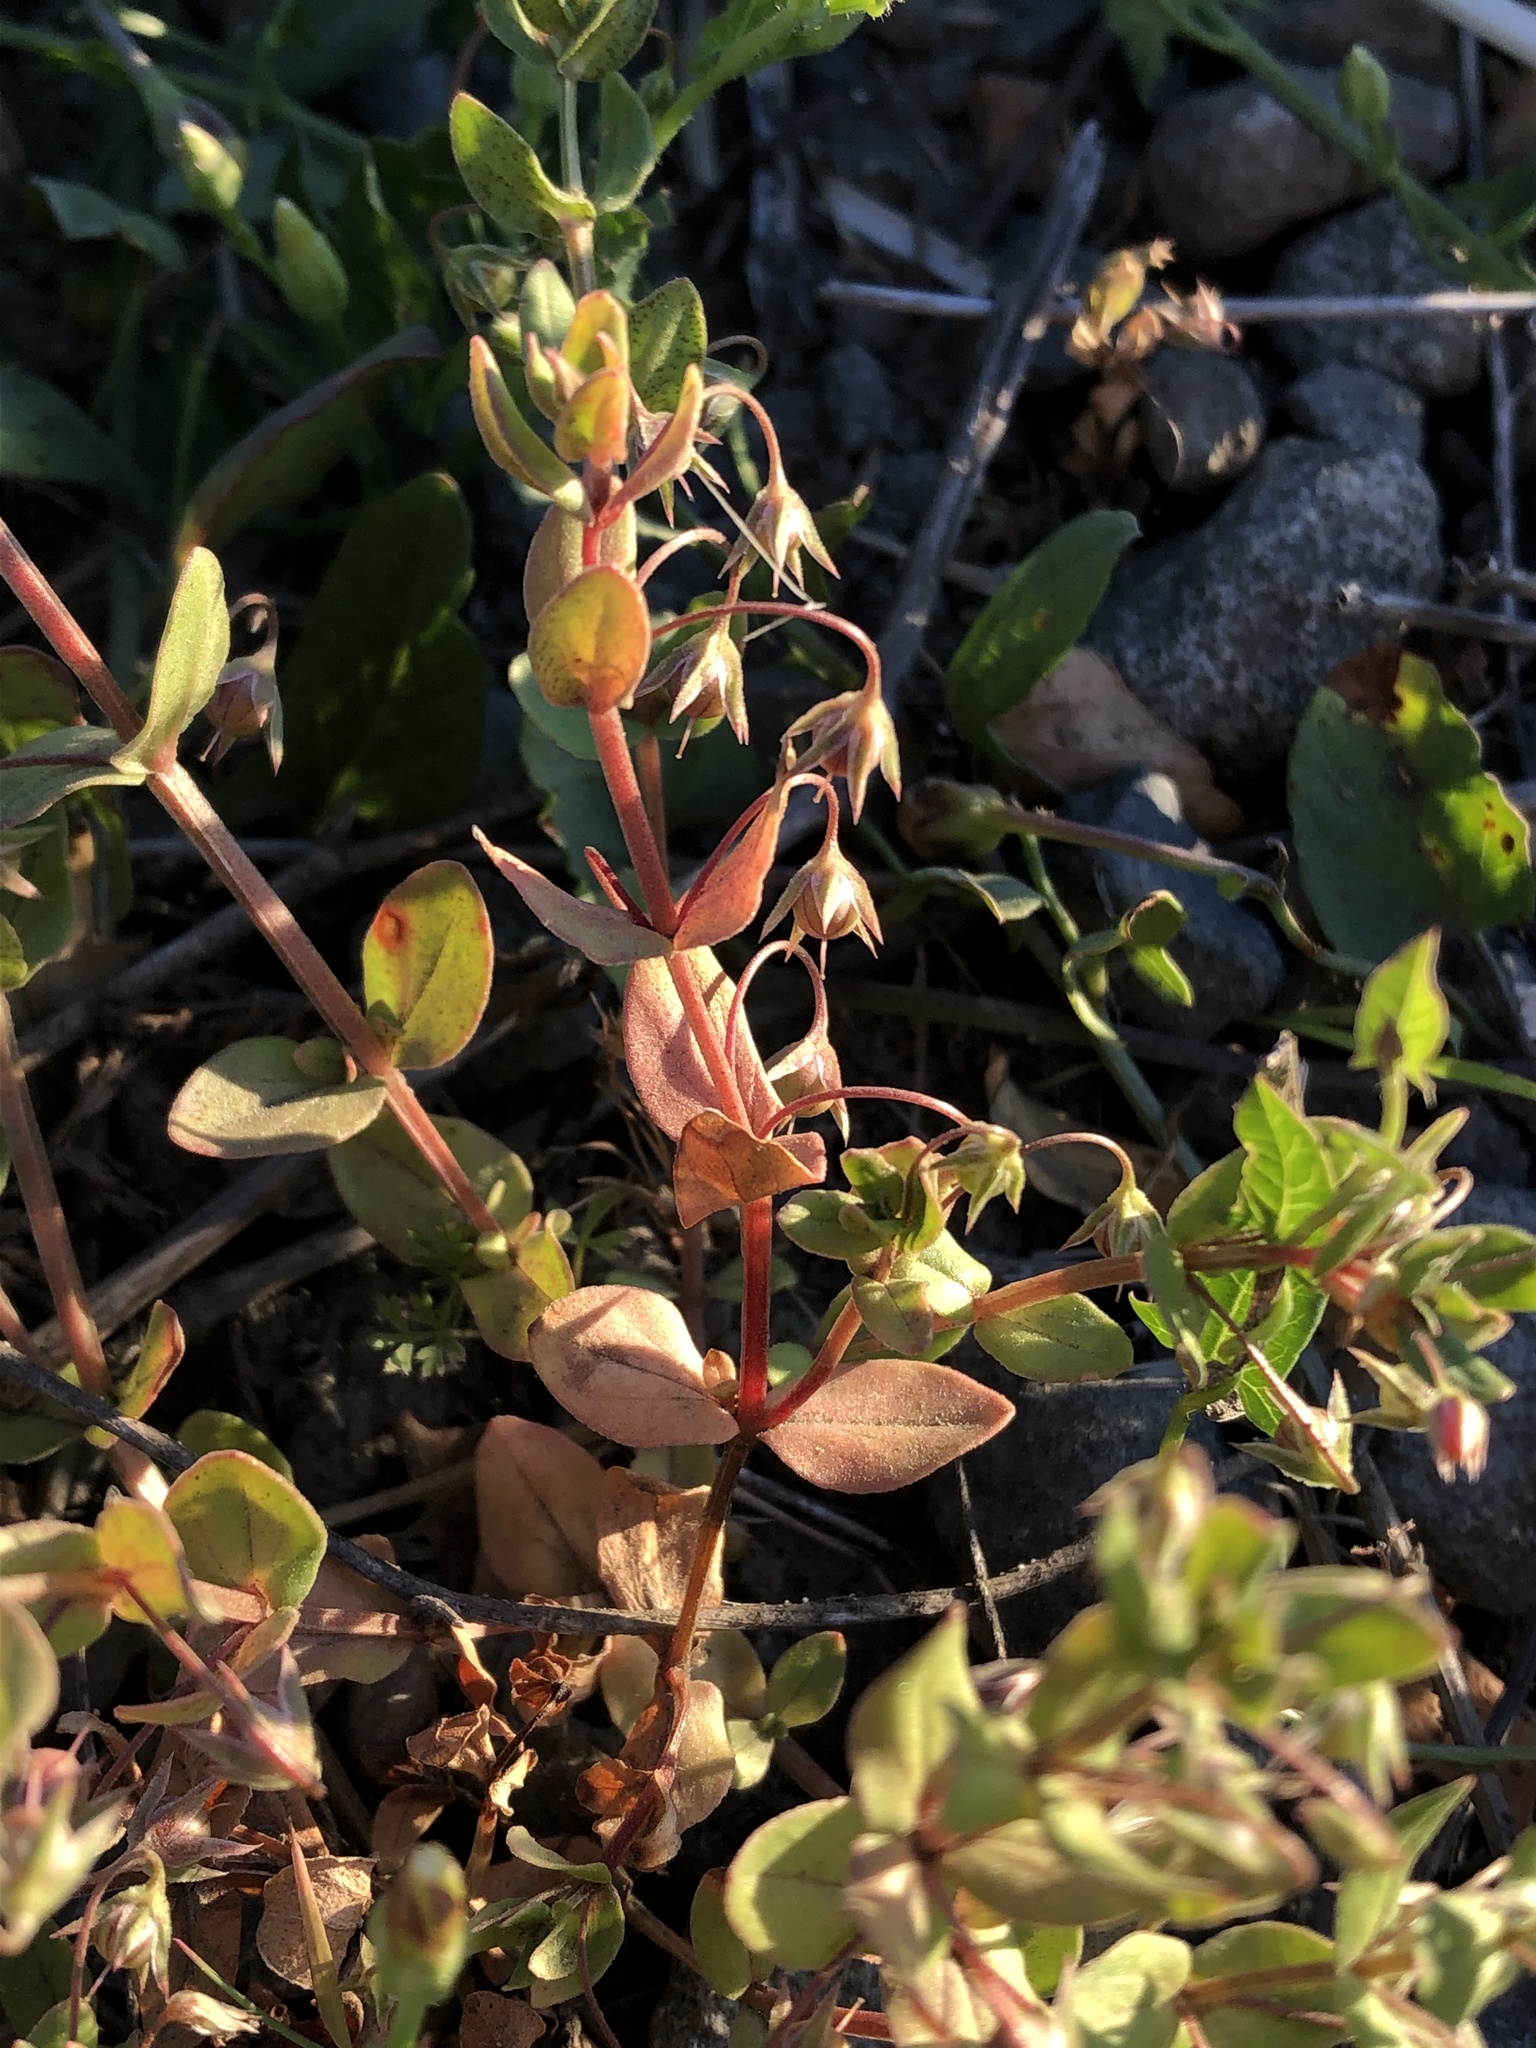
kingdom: Plantae
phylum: Tracheophyta
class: Magnoliopsida
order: Ericales
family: Primulaceae
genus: Lysimachia
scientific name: Lysimachia arvensis
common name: Scarlet pimpernel
